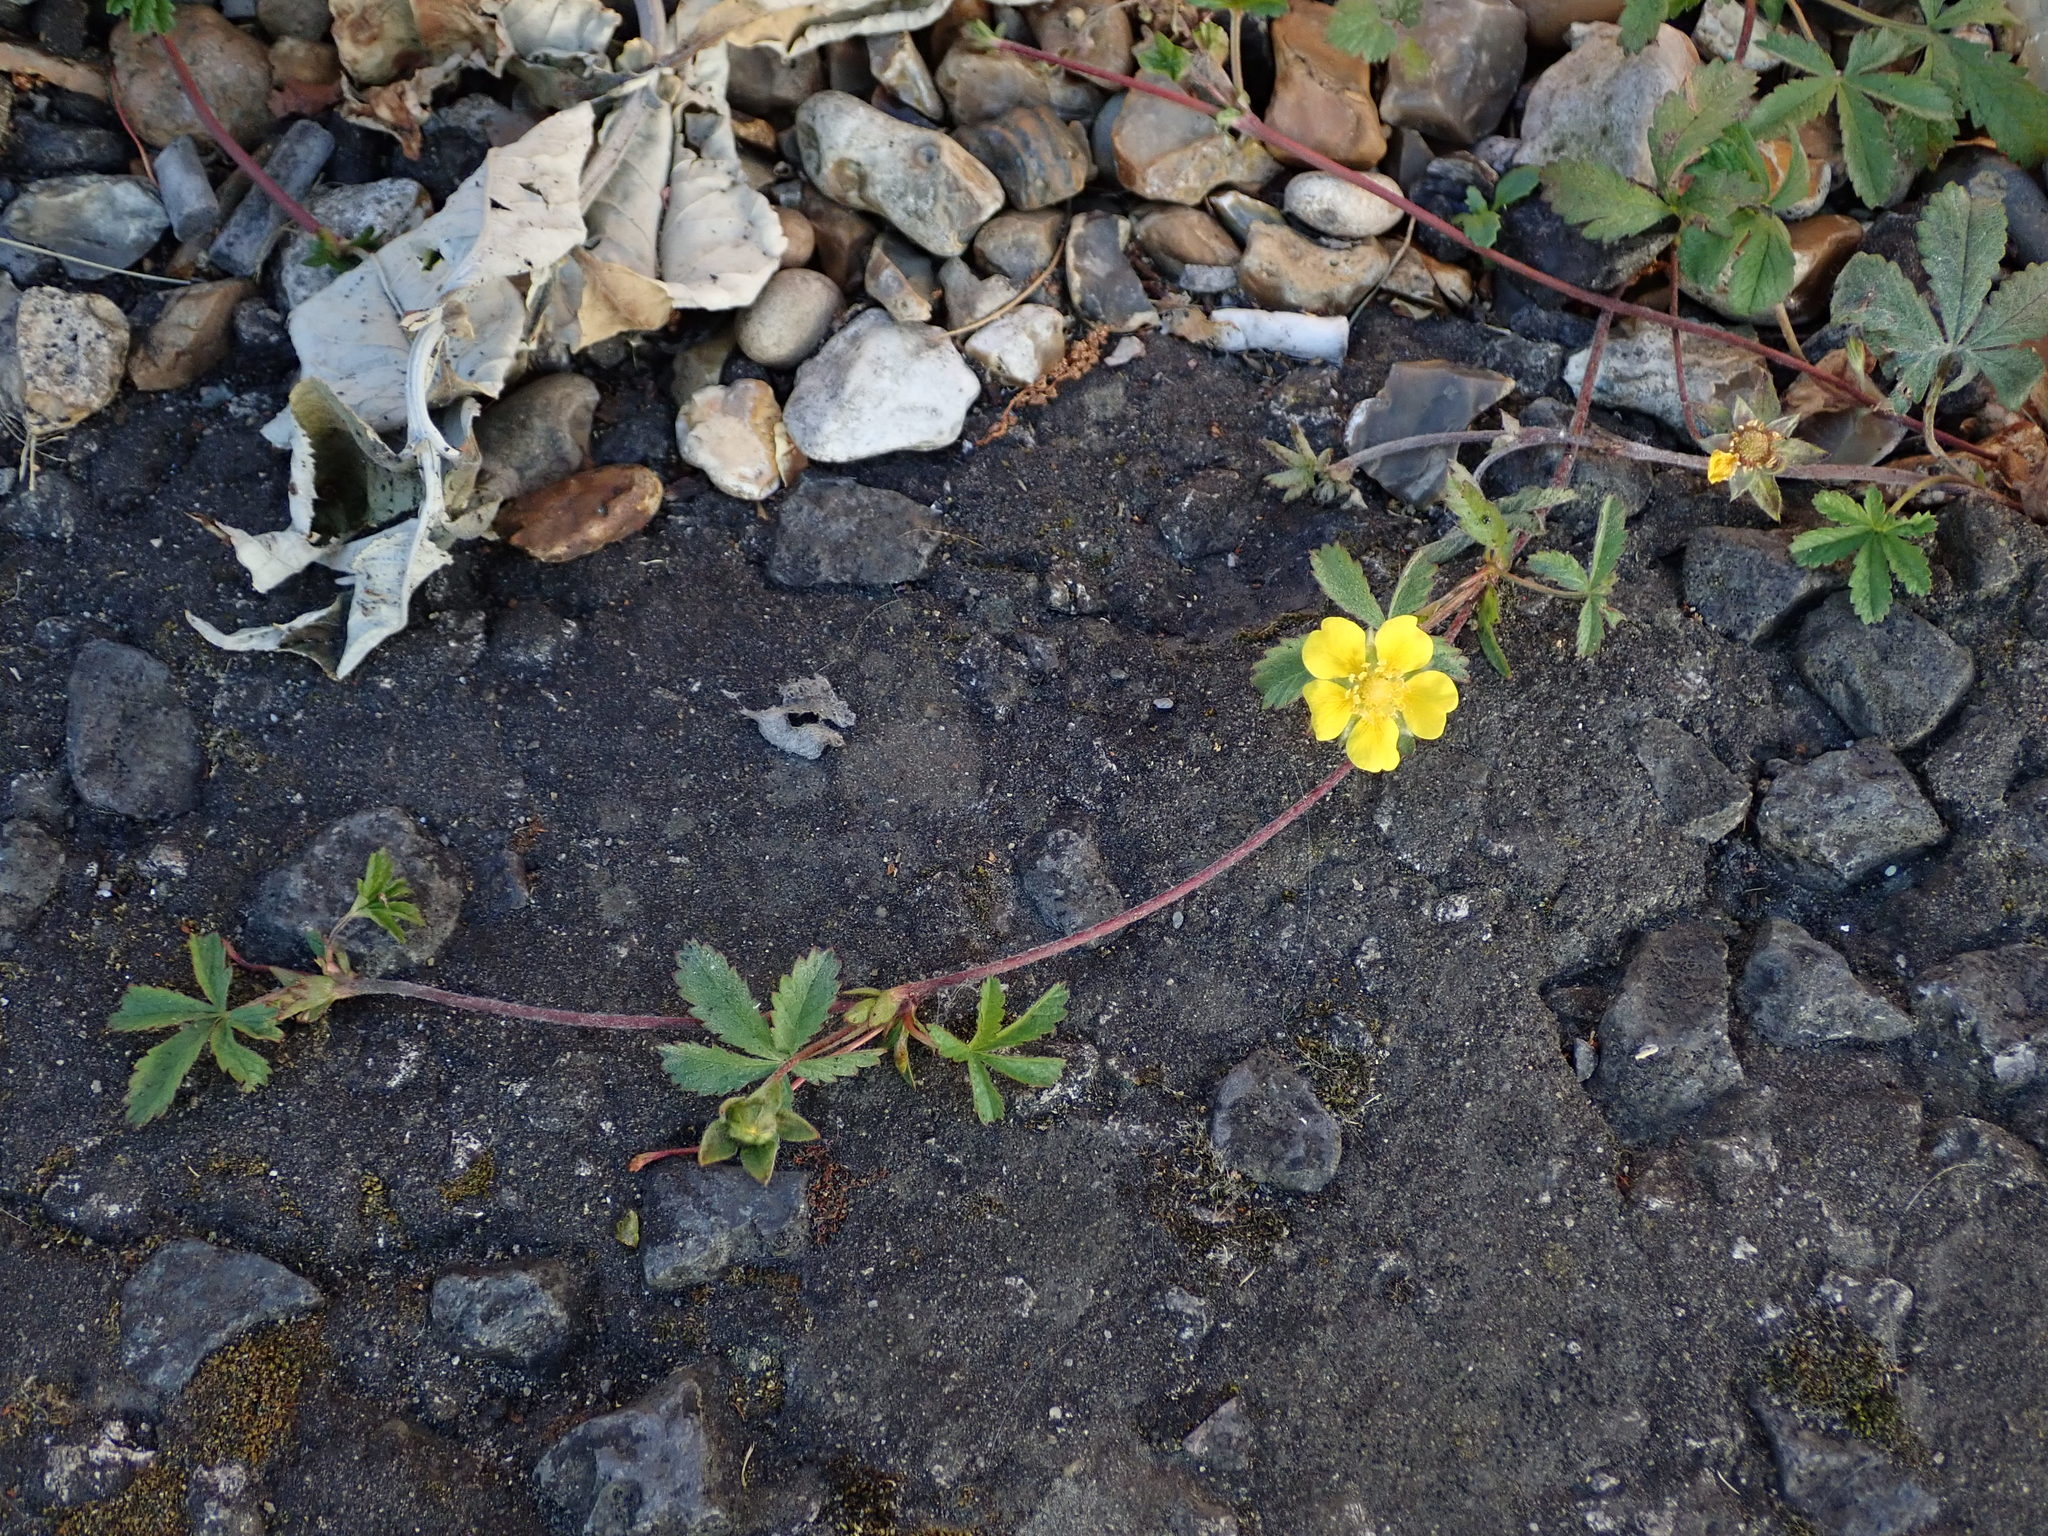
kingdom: Plantae
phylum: Tracheophyta
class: Magnoliopsida
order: Rosales
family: Rosaceae
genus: Potentilla
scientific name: Potentilla reptans
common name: Creeping cinquefoil
